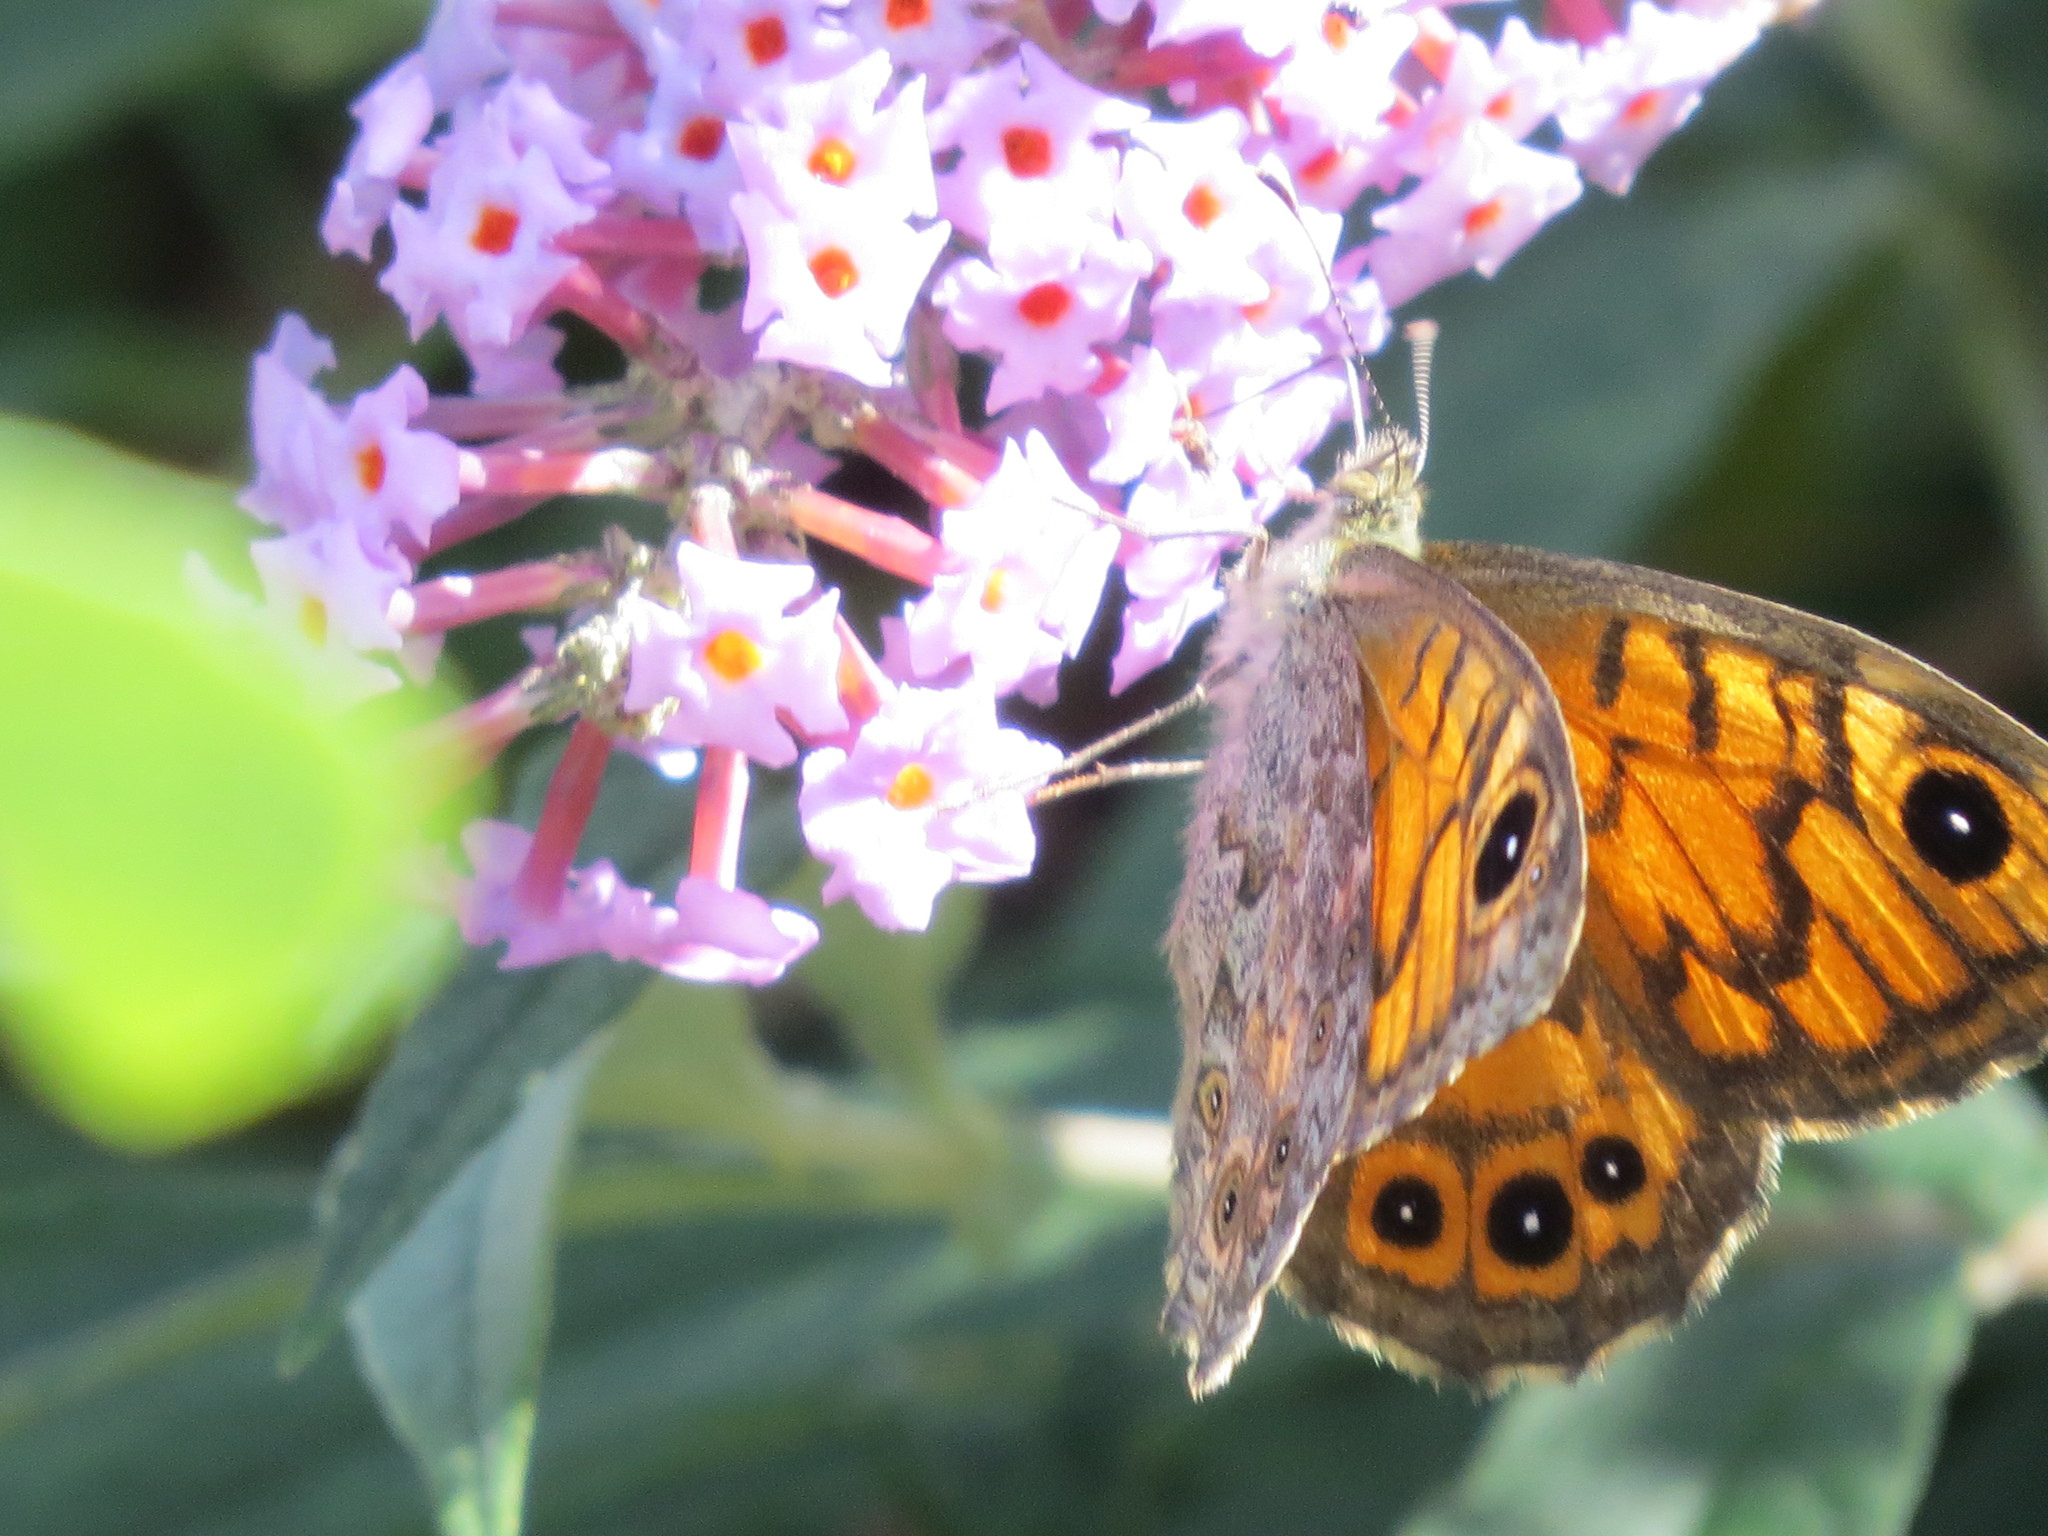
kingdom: Animalia
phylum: Arthropoda
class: Insecta
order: Lepidoptera
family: Nymphalidae
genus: Pararge
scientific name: Pararge Lasiommata megera
